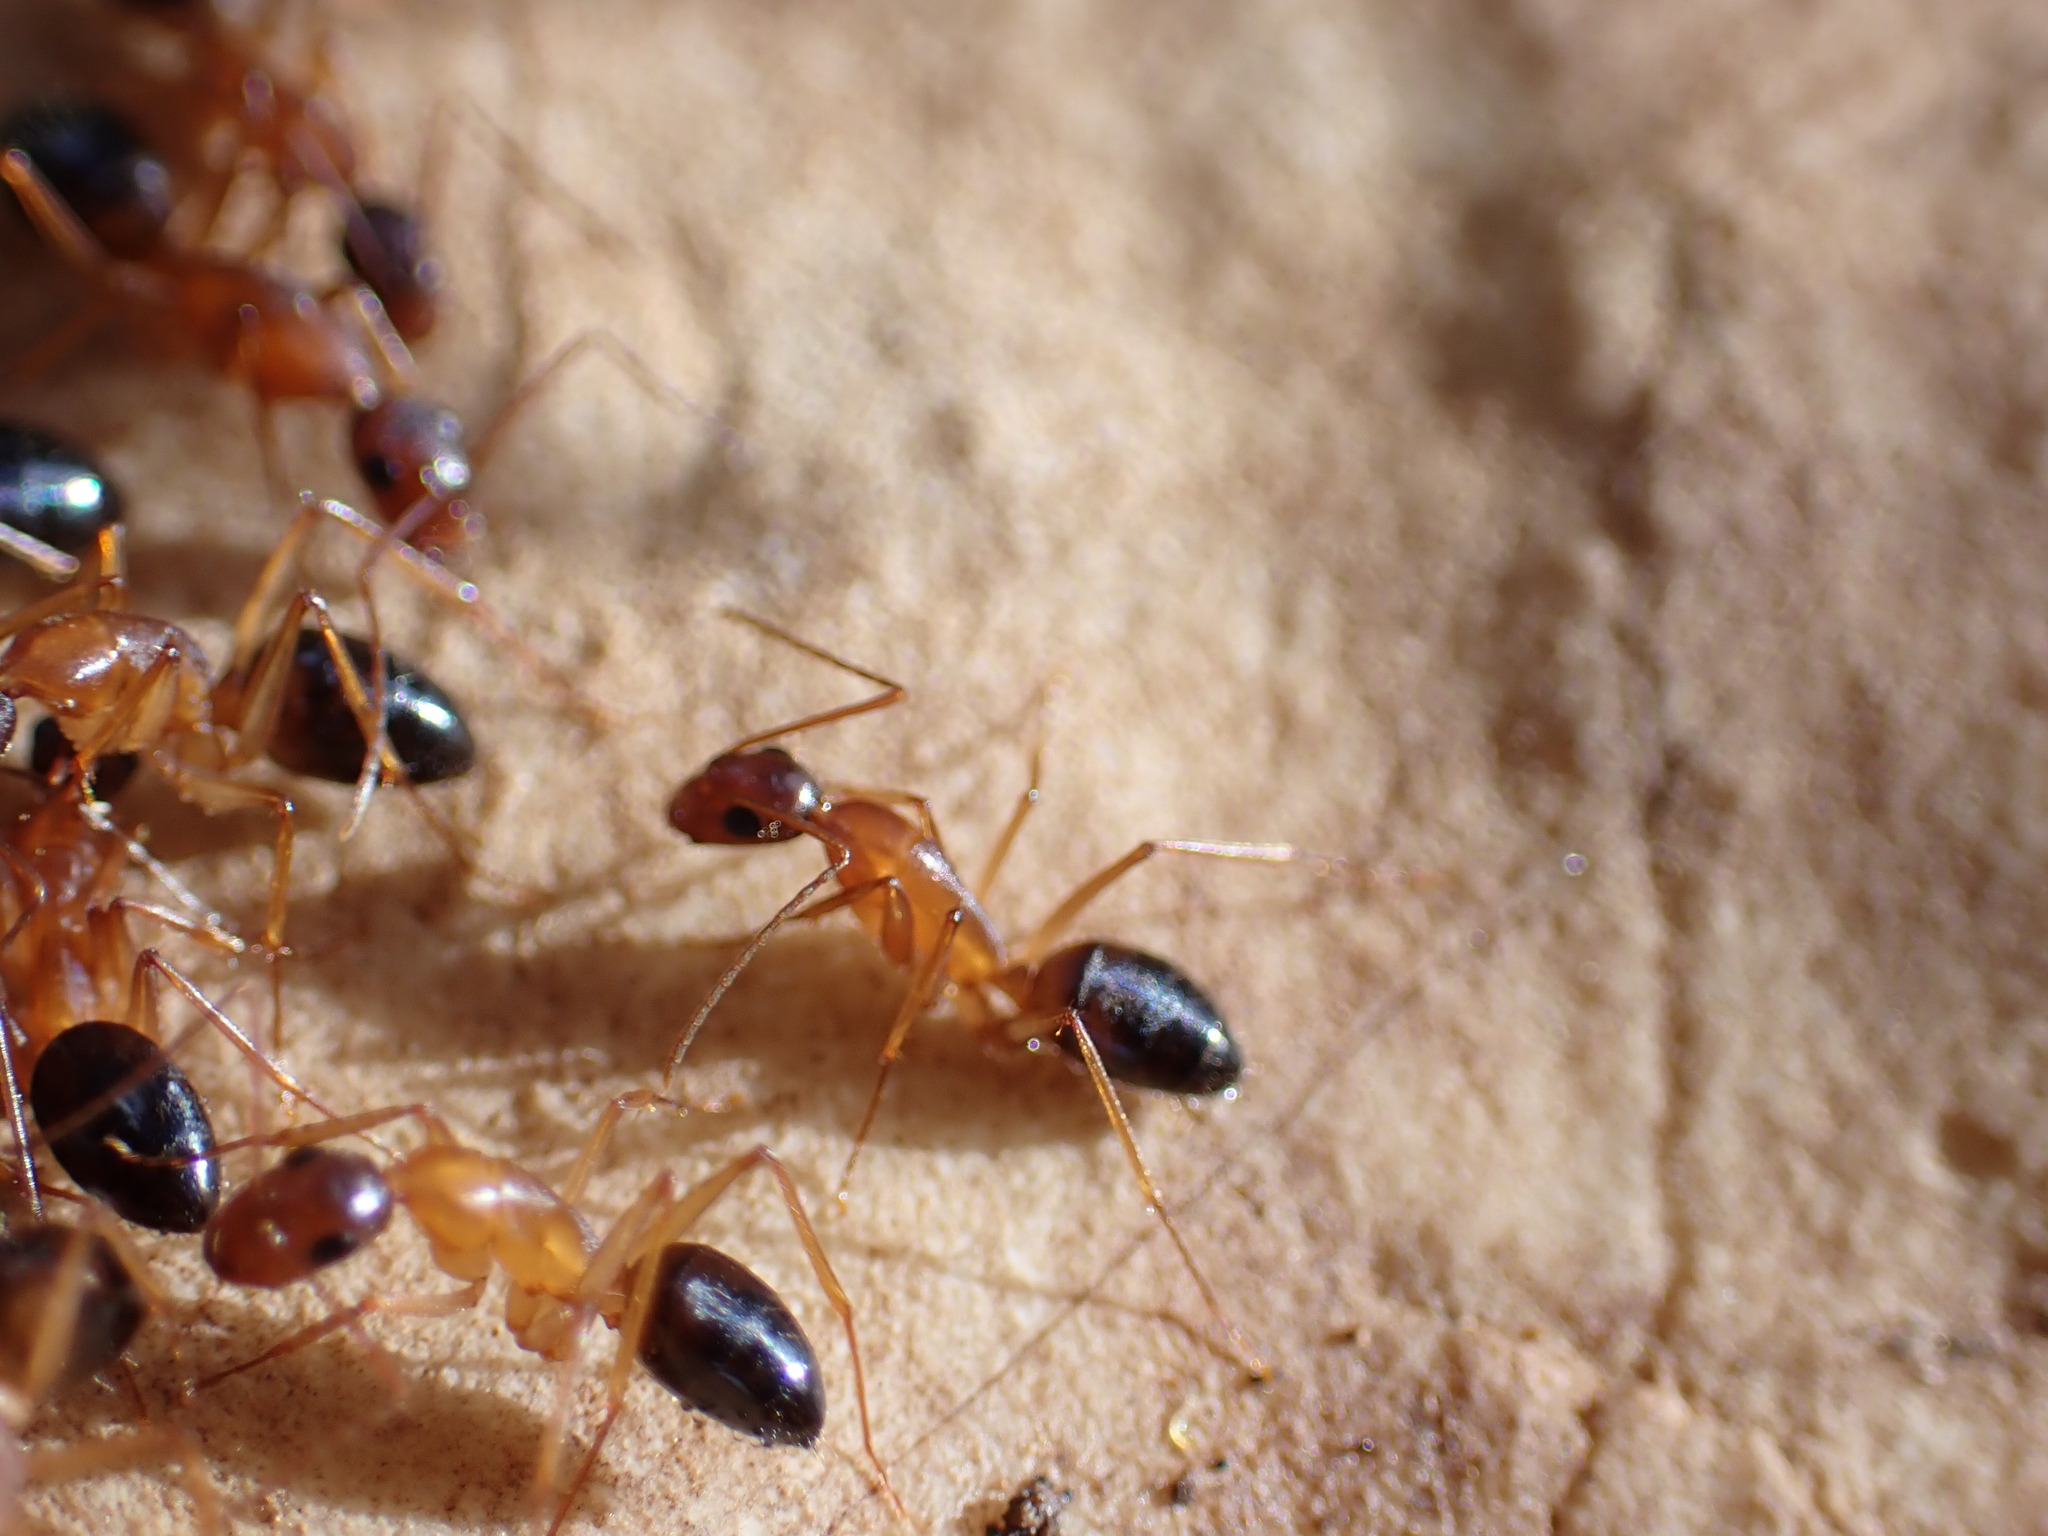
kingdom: Animalia
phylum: Arthropoda
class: Insecta
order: Hymenoptera
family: Formicidae
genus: Camponotus
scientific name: Camponotus pilicornis
